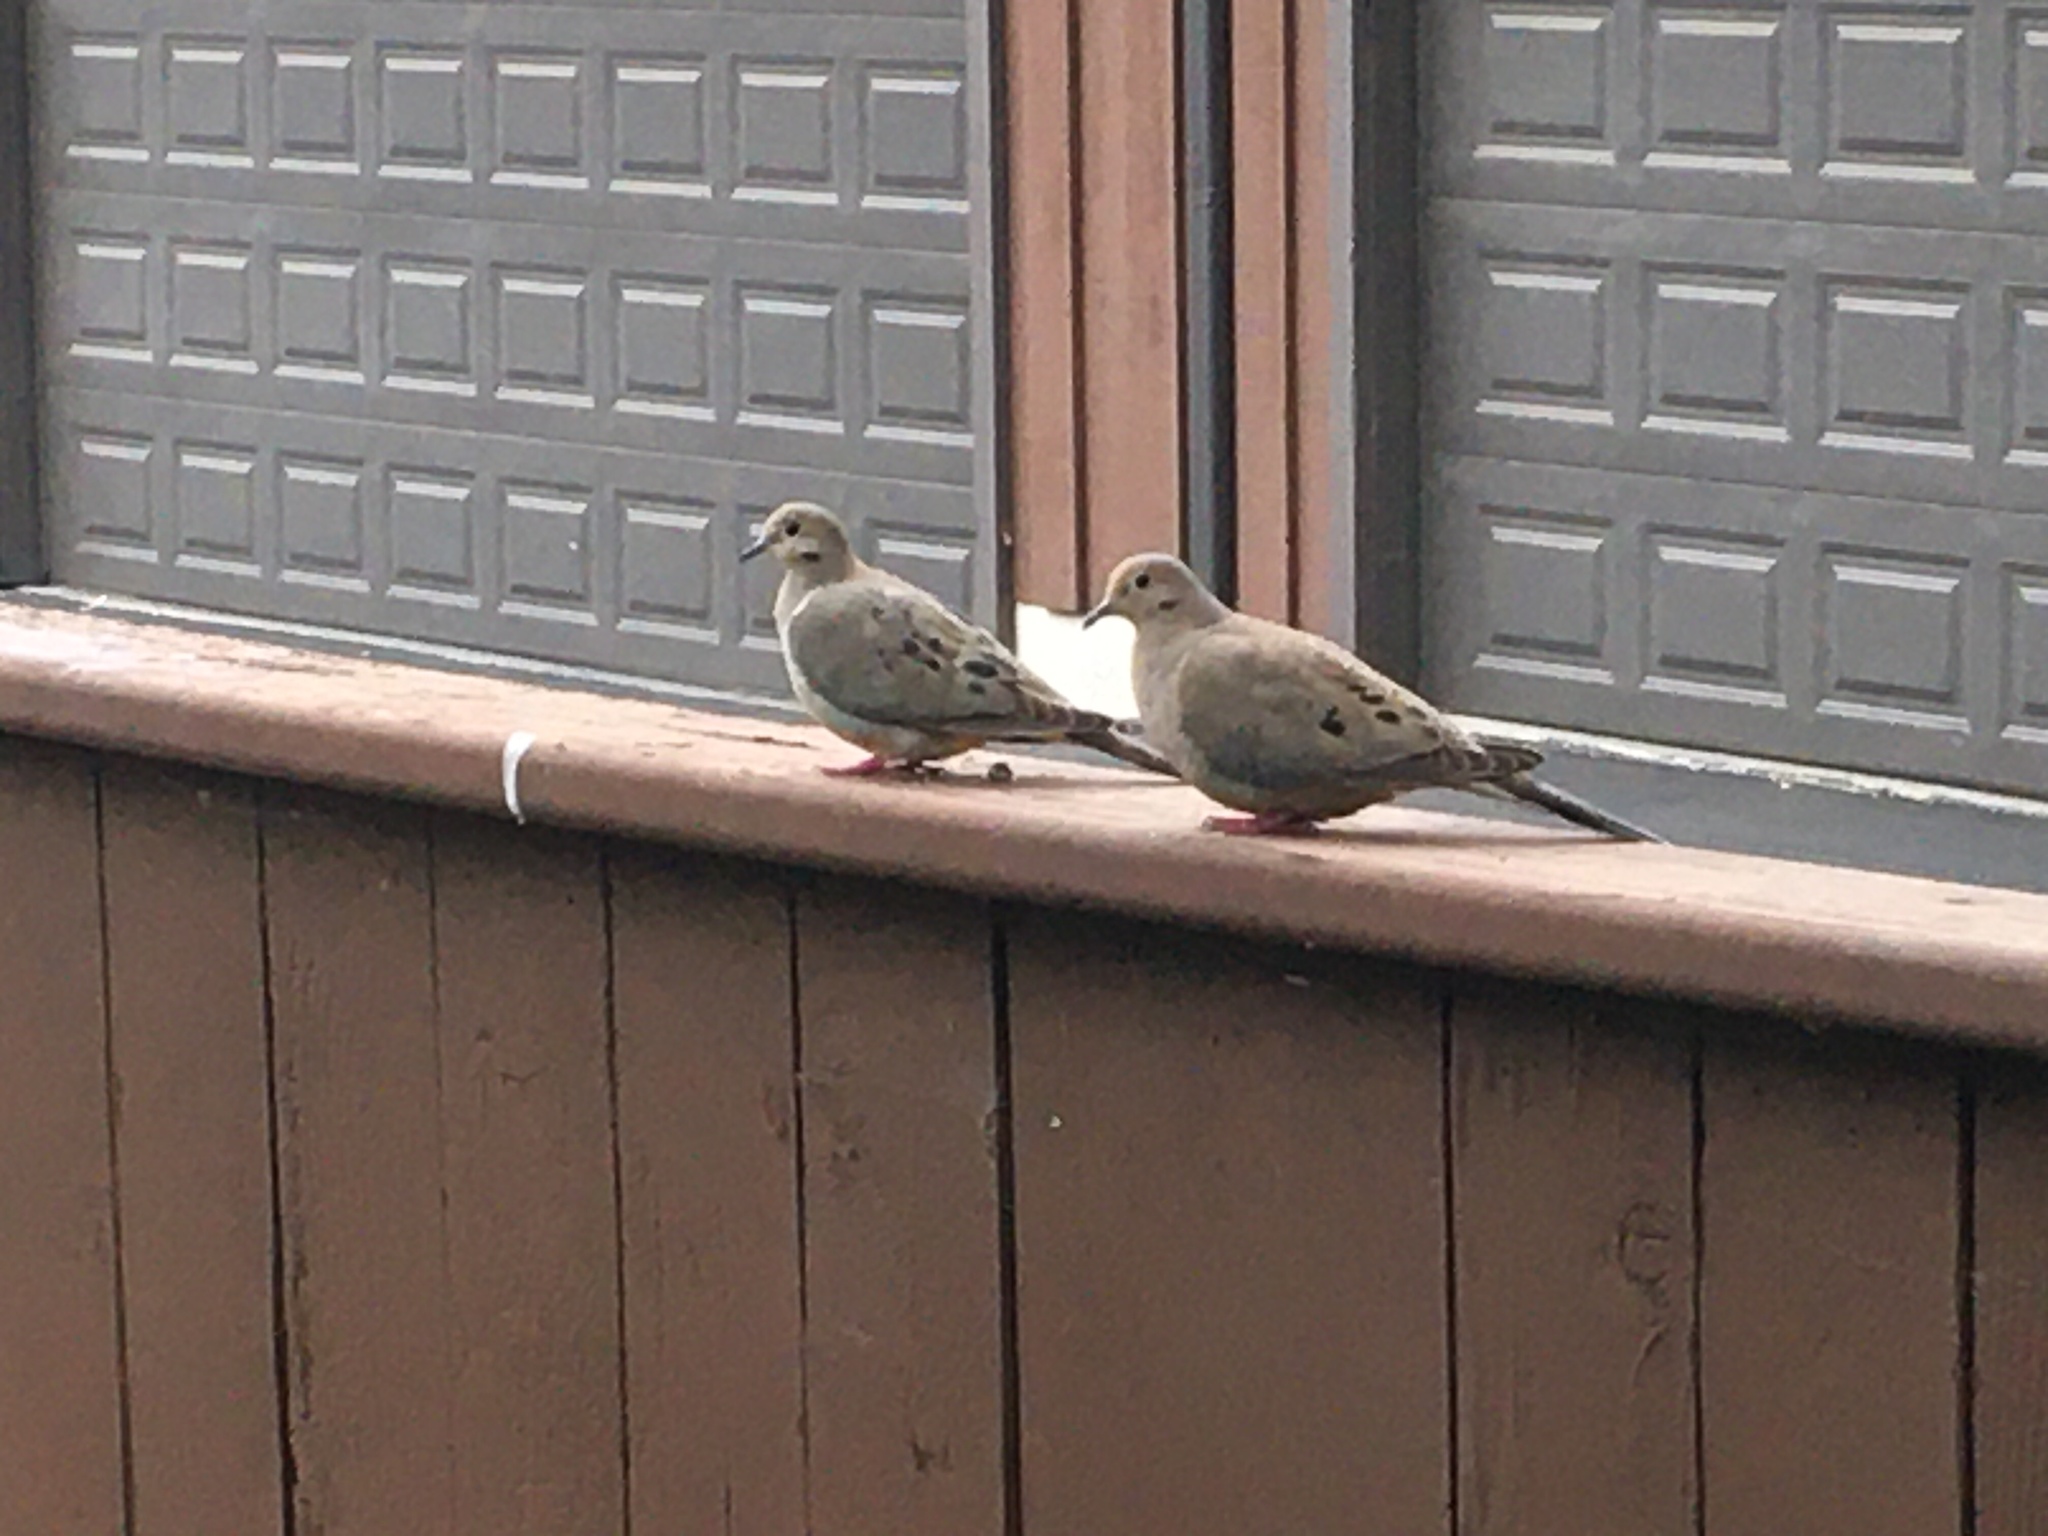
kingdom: Animalia
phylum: Chordata
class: Aves
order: Columbiformes
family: Columbidae
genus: Zenaida
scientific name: Zenaida macroura
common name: Mourning dove
